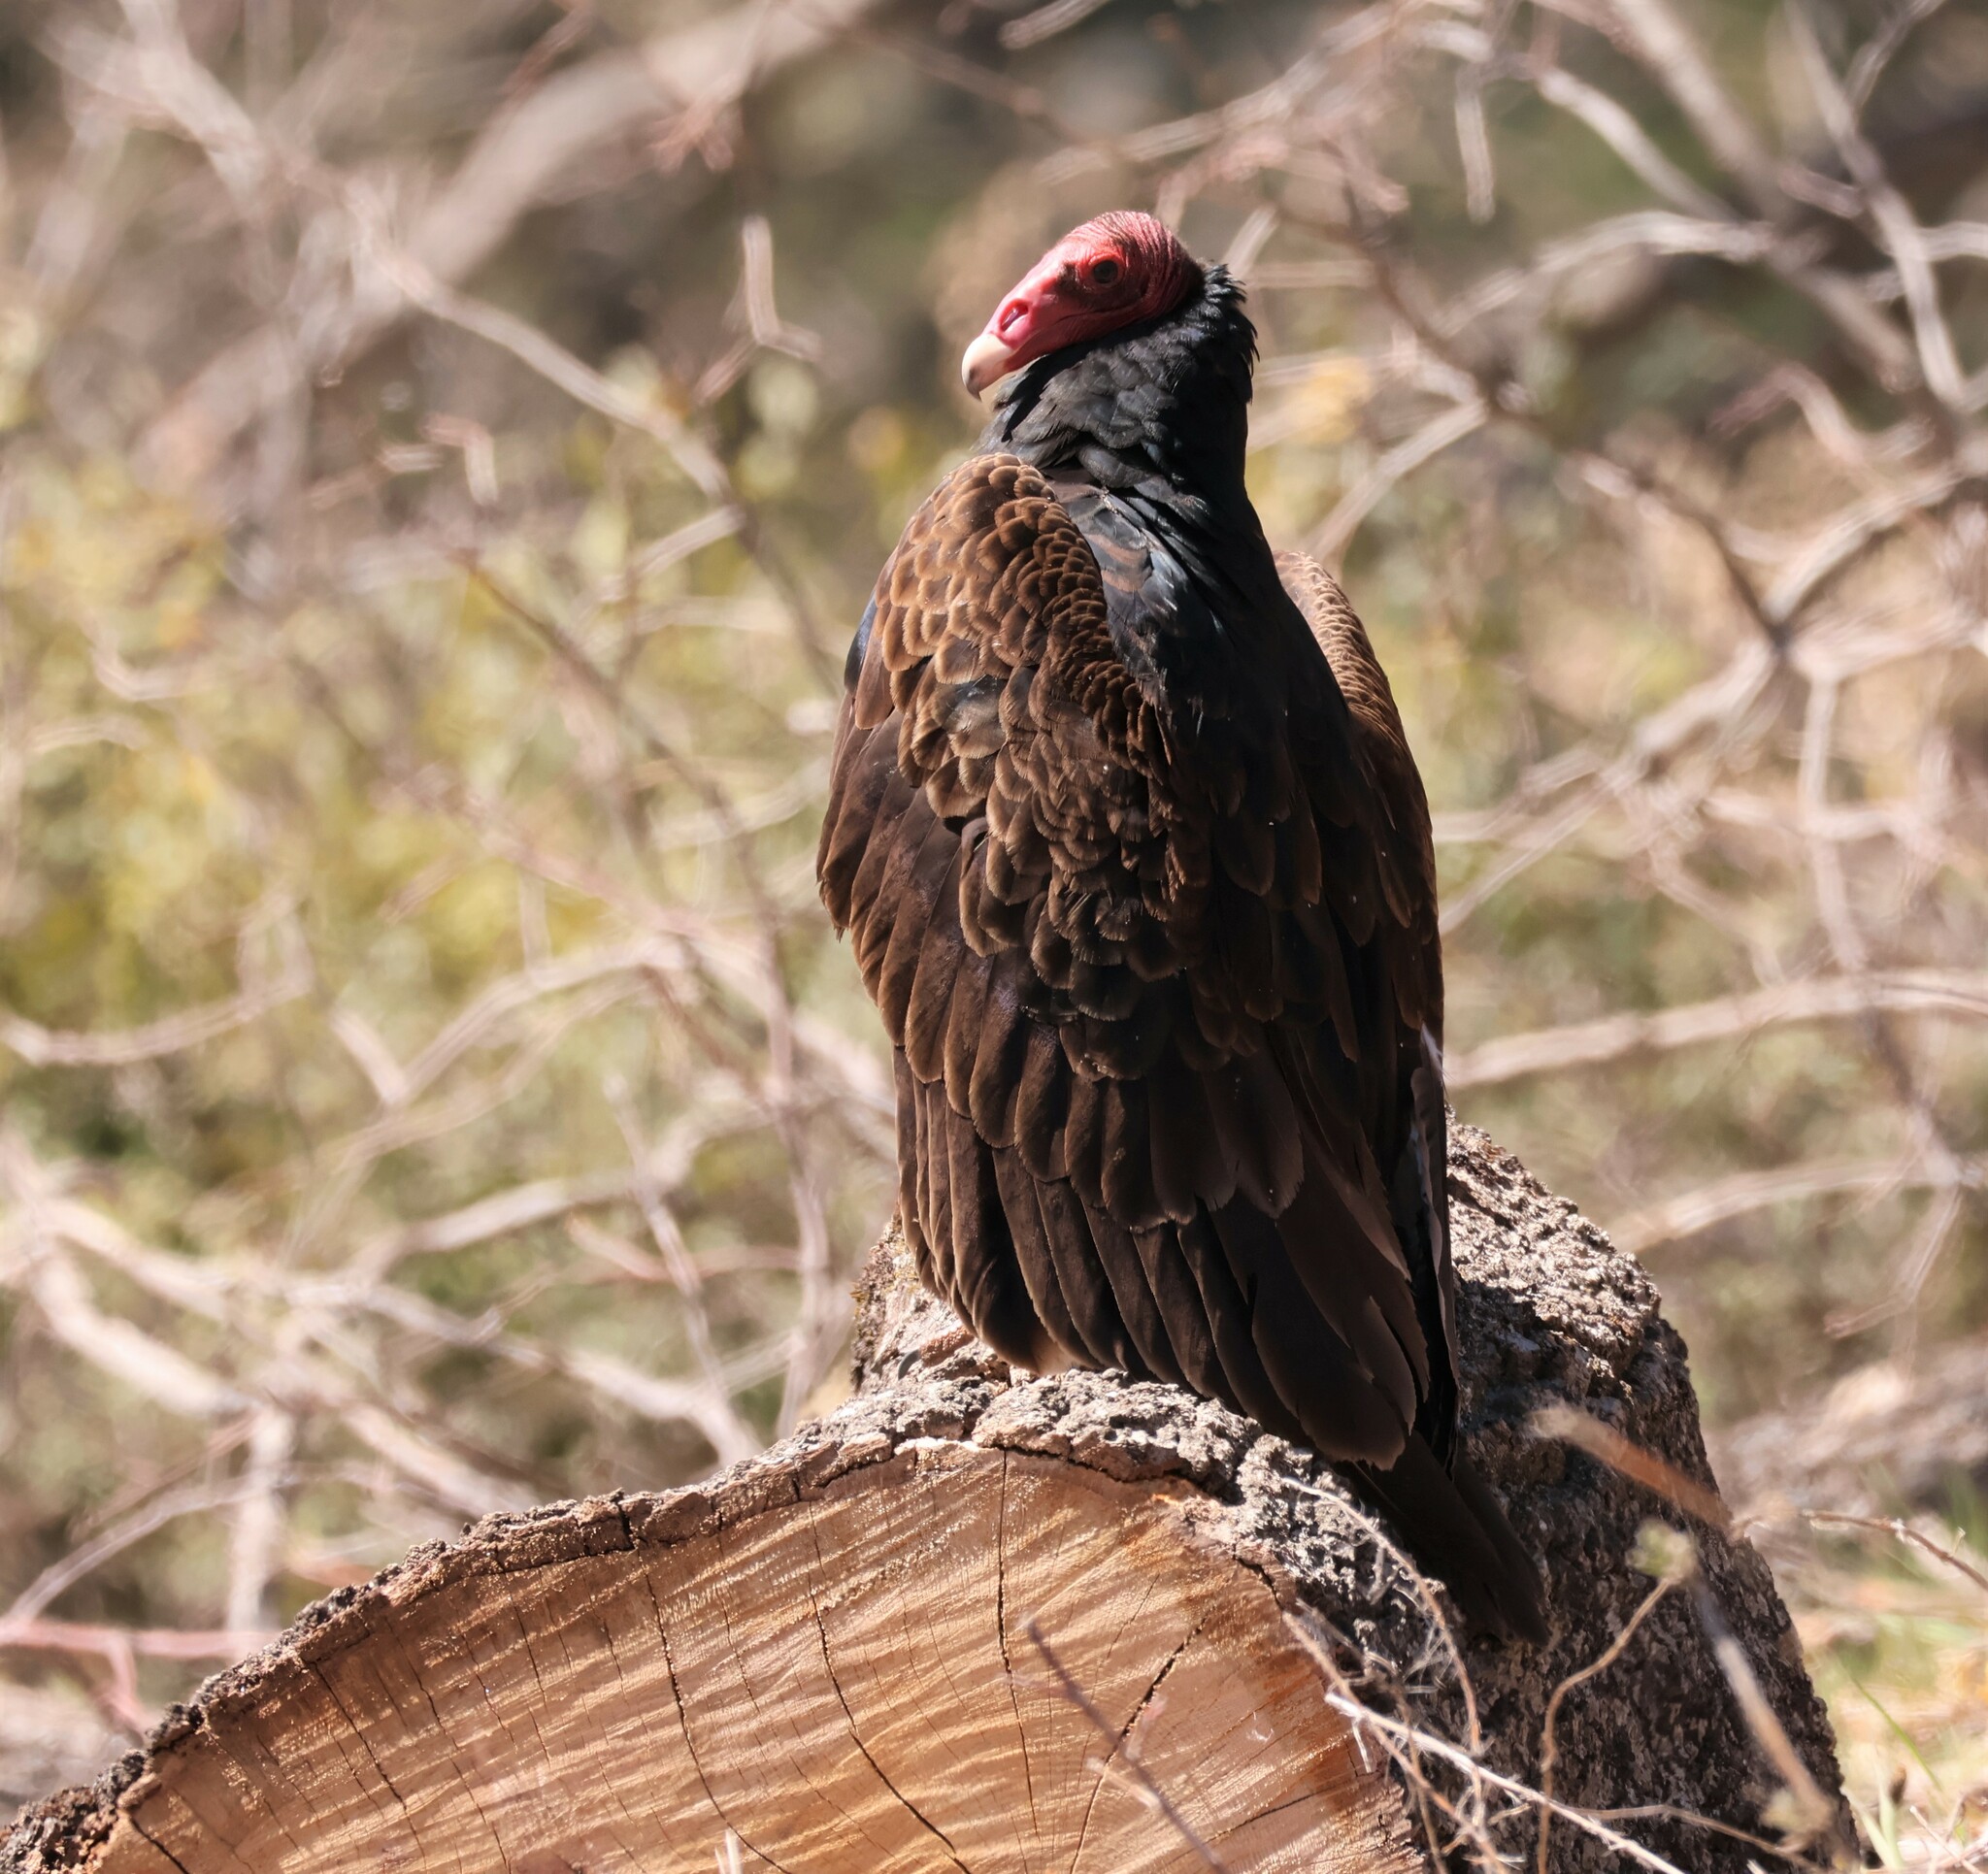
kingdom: Animalia
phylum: Chordata
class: Aves
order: Accipitriformes
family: Cathartidae
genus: Cathartes
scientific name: Cathartes aura
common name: Turkey vulture
